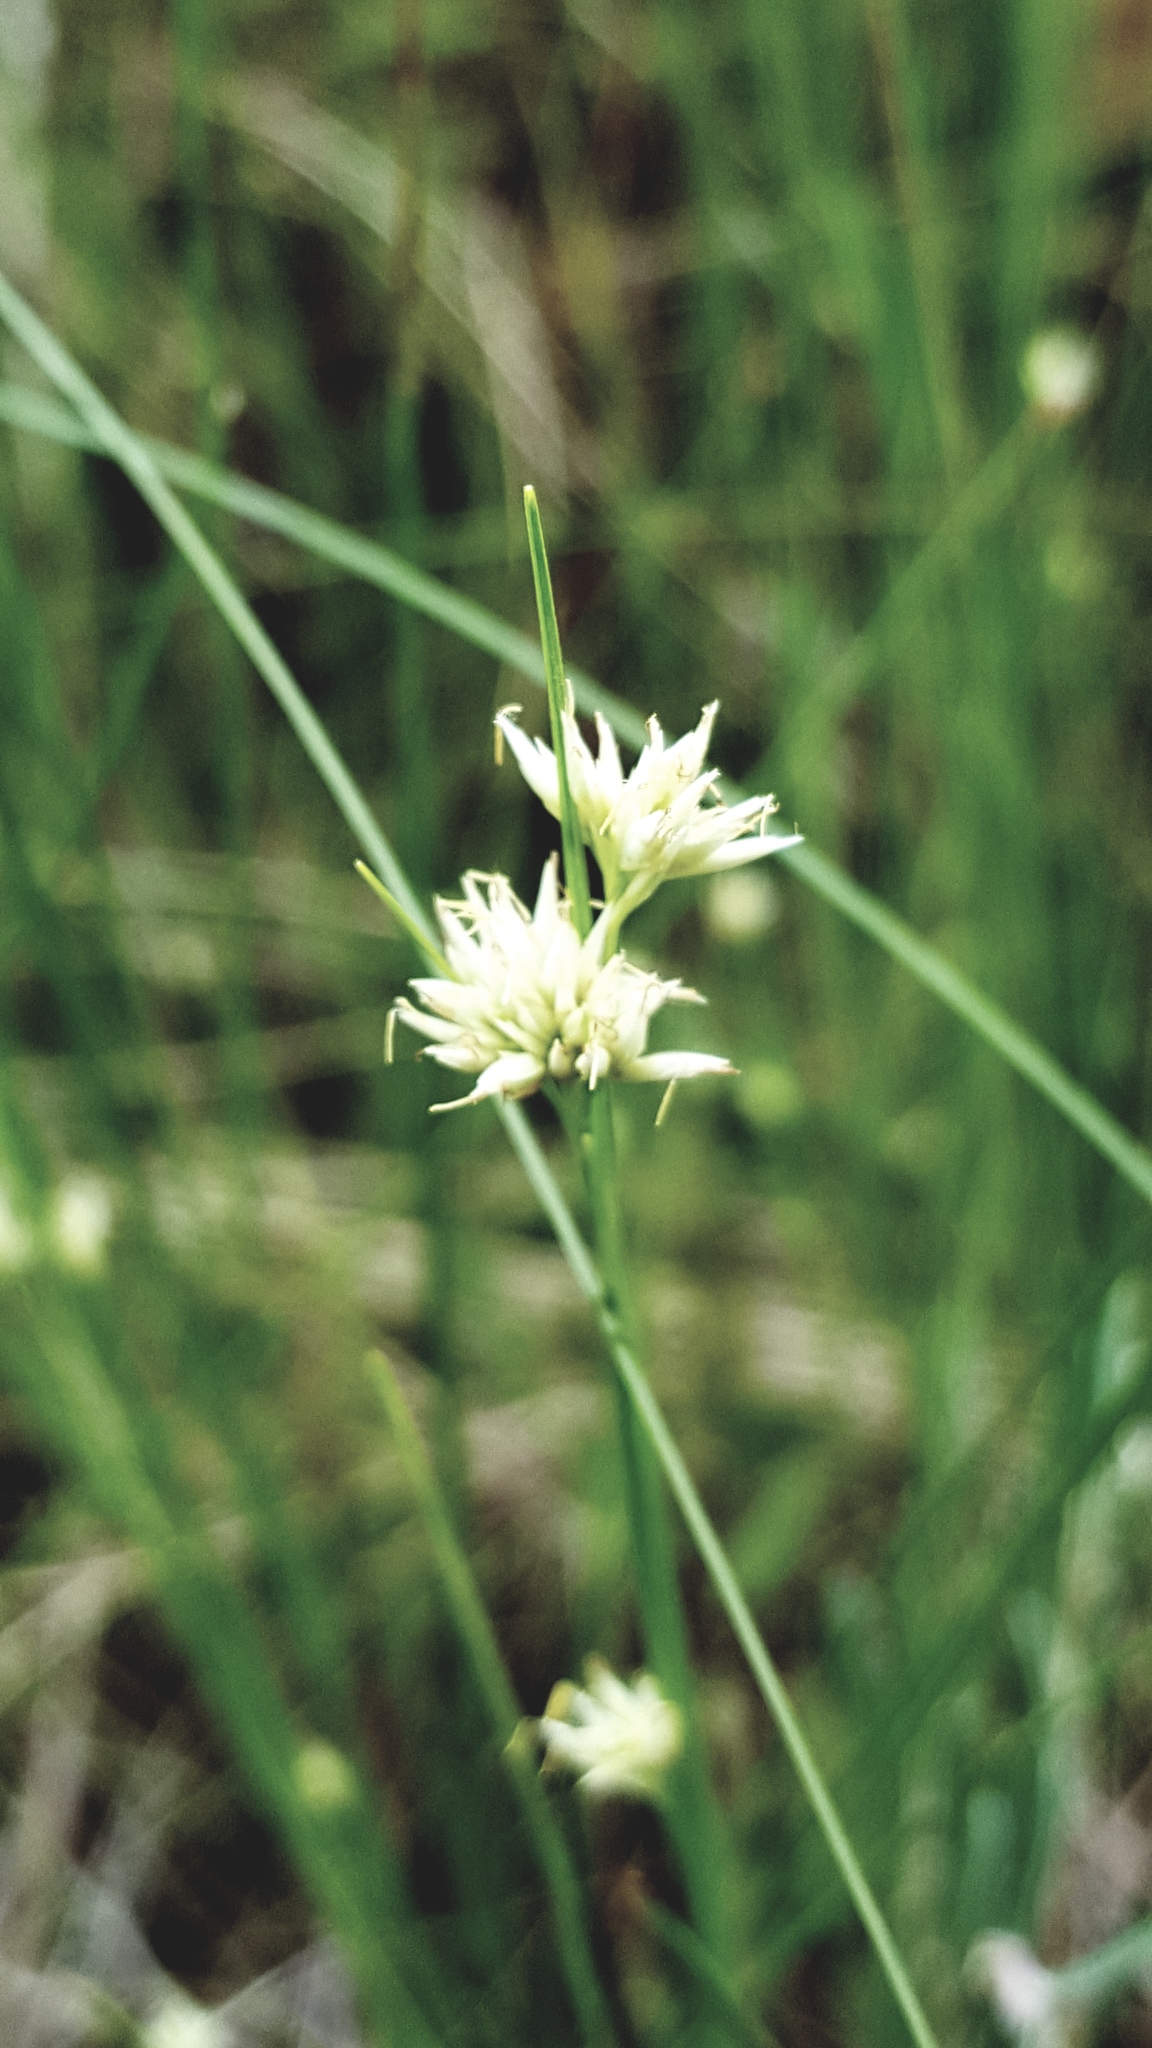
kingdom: Plantae
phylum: Tracheophyta
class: Liliopsida
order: Poales
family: Cyperaceae
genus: Rhynchospora
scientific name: Rhynchospora alba
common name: White beak-sedge
